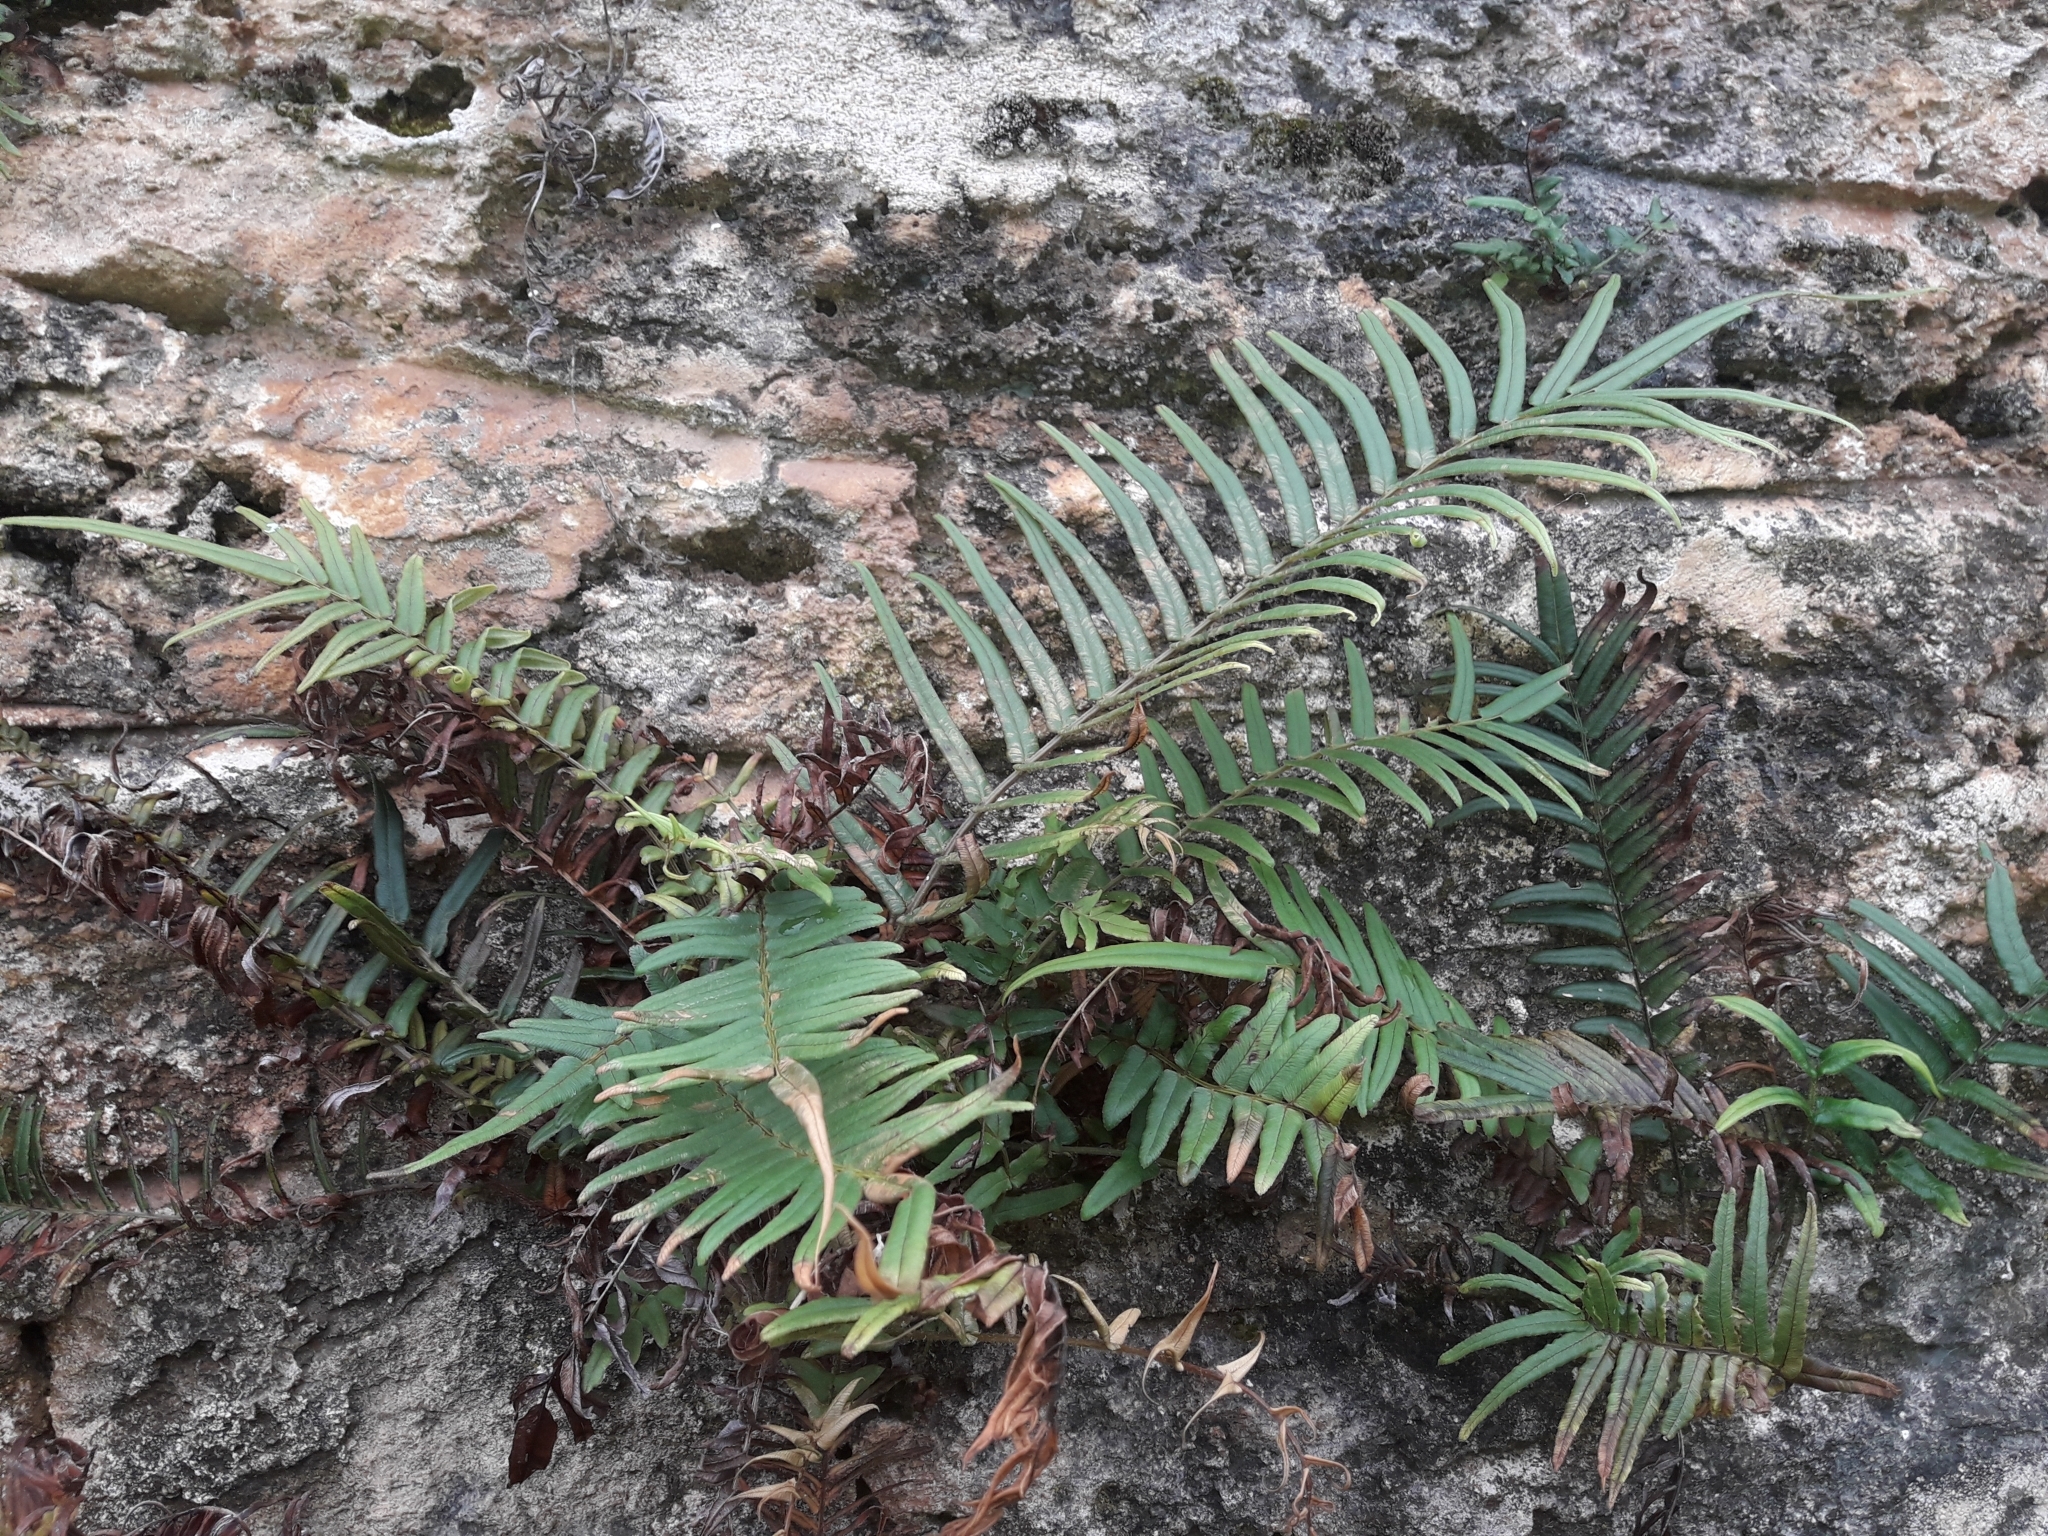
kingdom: Plantae
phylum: Tracheophyta
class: Polypodiopsida
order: Polypodiales
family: Pteridaceae
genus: Pteris
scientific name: Pteris vittata
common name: Ladder brake
